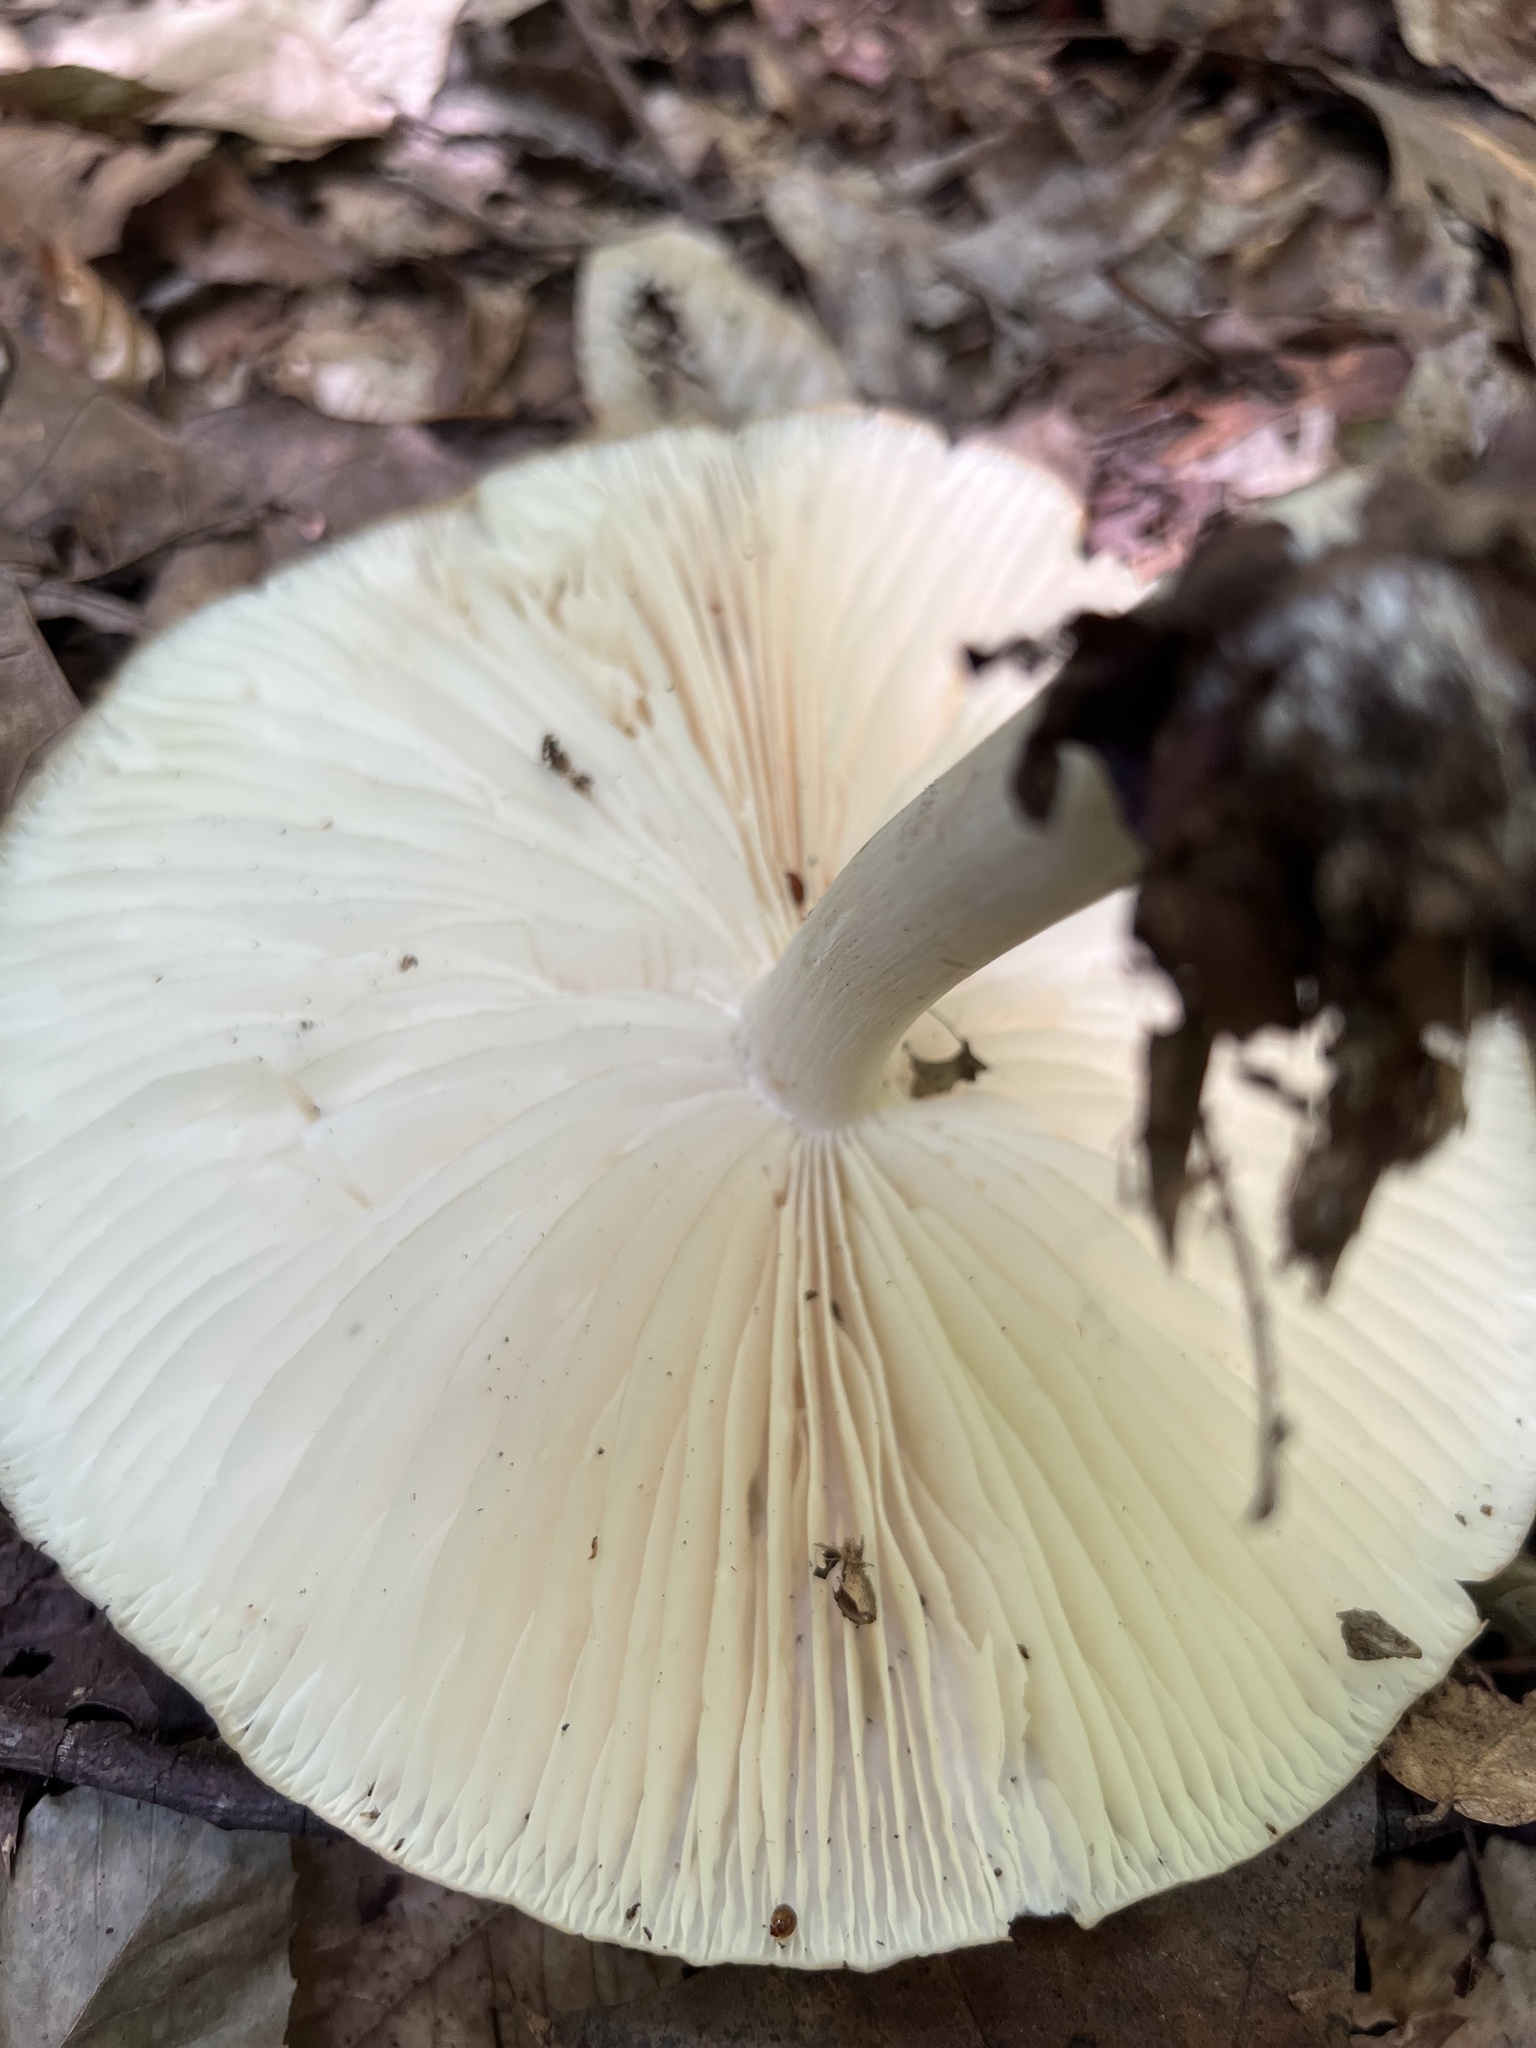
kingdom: Fungi
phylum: Basidiomycota
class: Agaricomycetes
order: Agaricales
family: Tricholomataceae
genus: Megacollybia
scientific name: Megacollybia rodmanii
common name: Eastern american platterful mushroom
